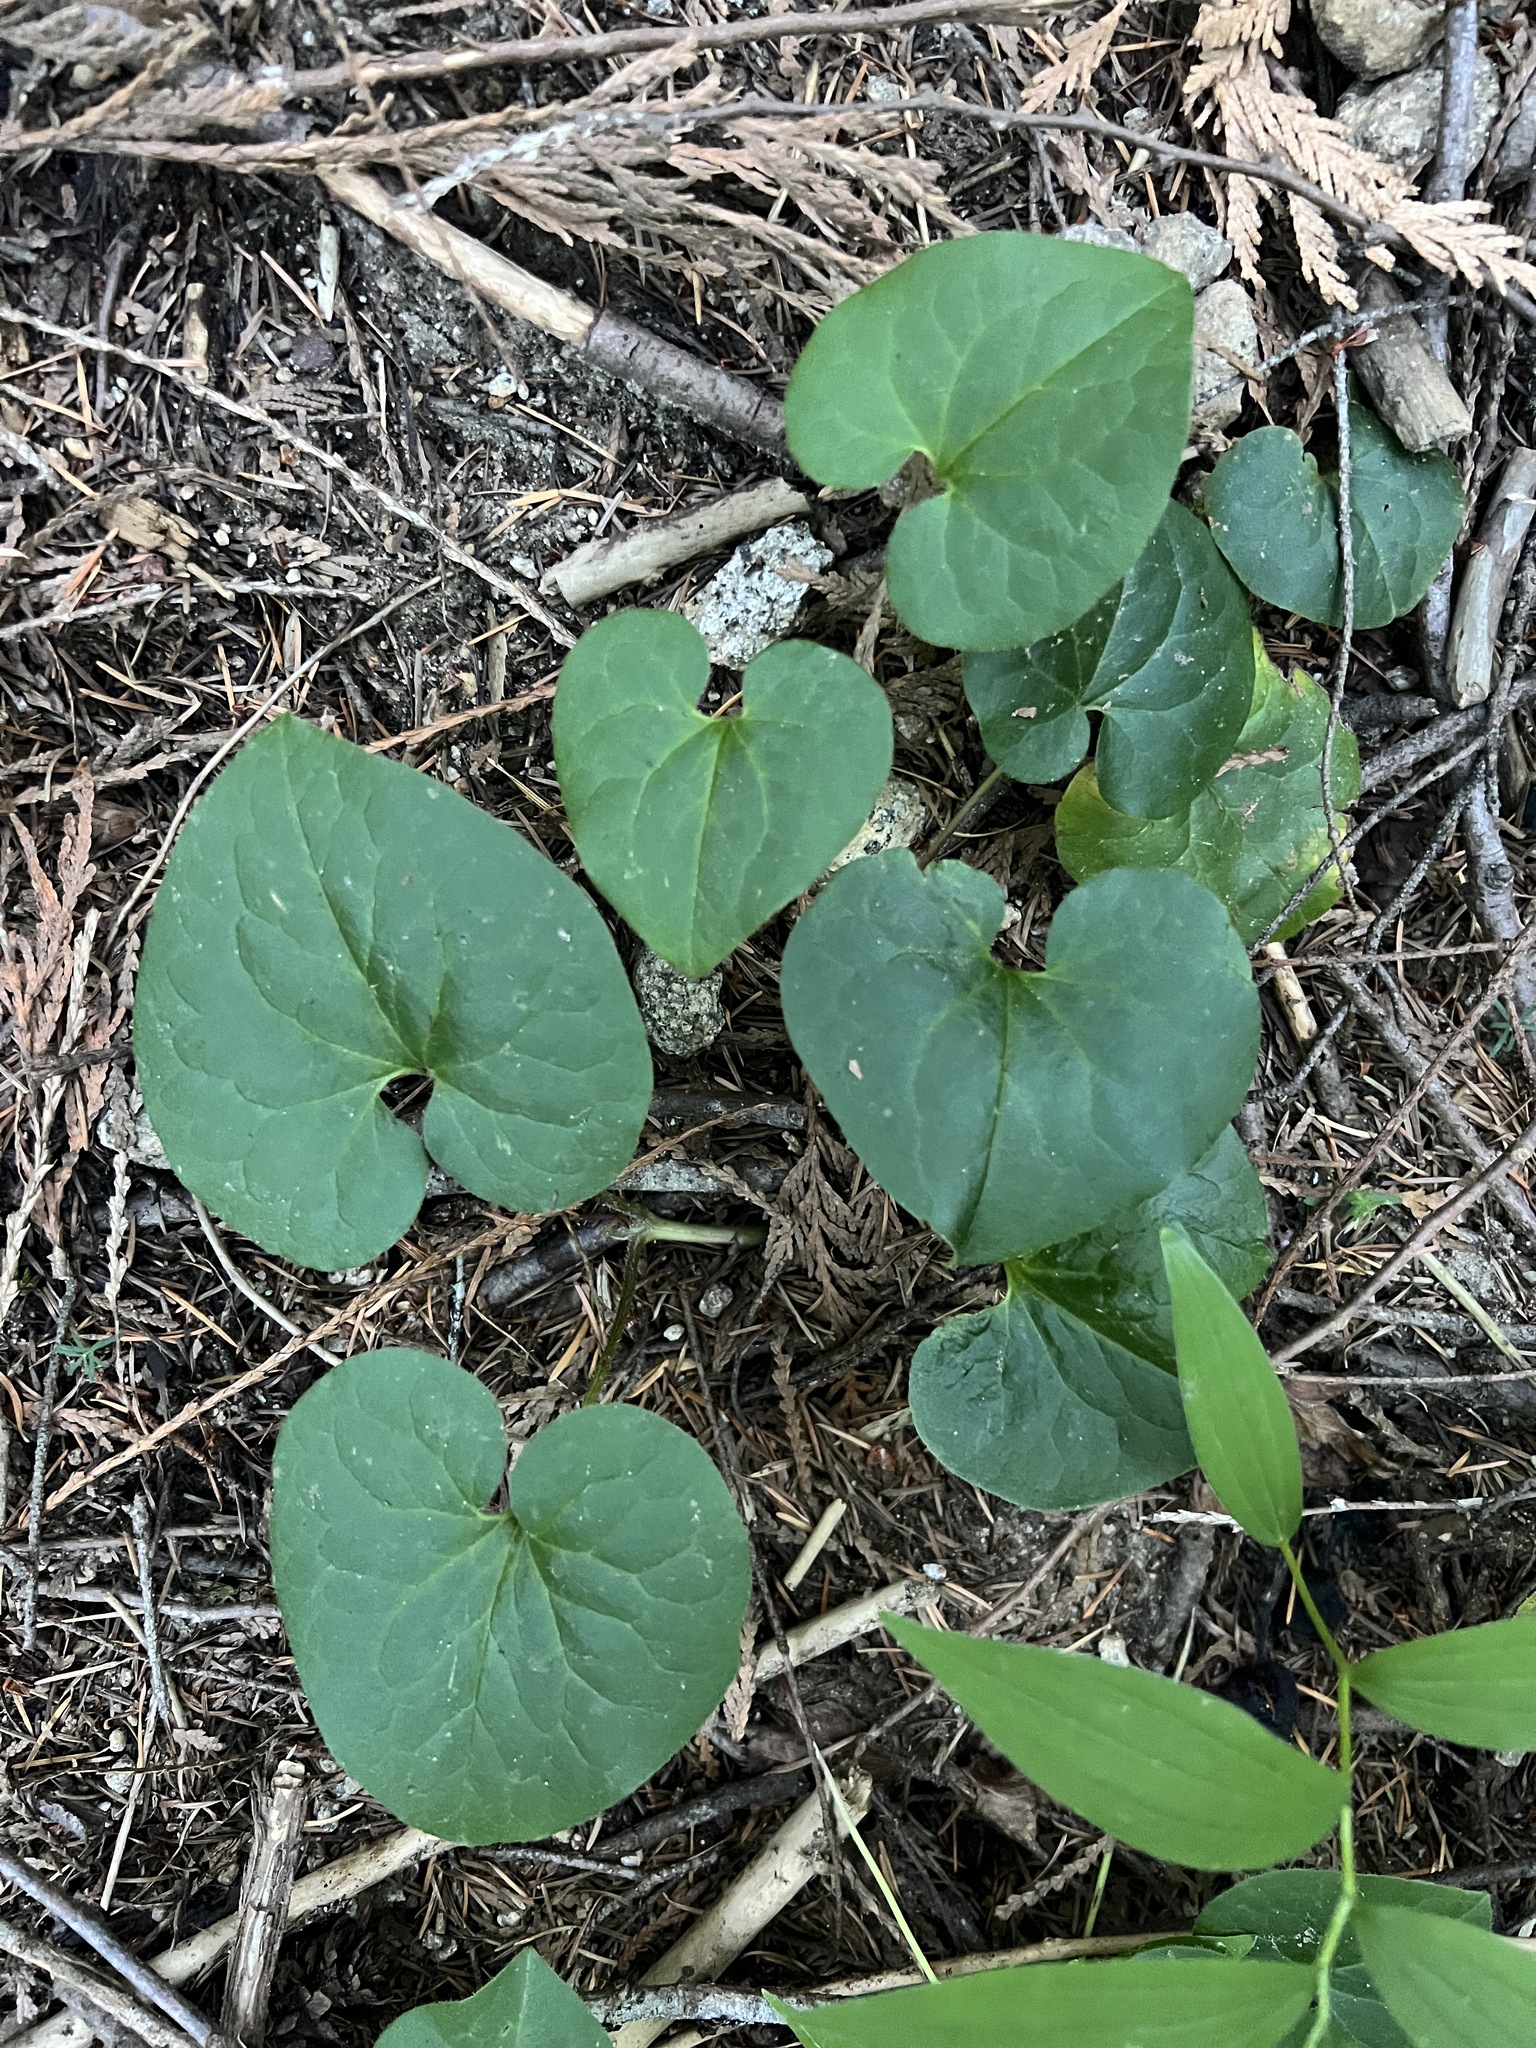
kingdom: Plantae
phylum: Tracheophyta
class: Magnoliopsida
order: Piperales
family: Aristolochiaceae
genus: Asarum
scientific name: Asarum caudatum
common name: Wild ginger
